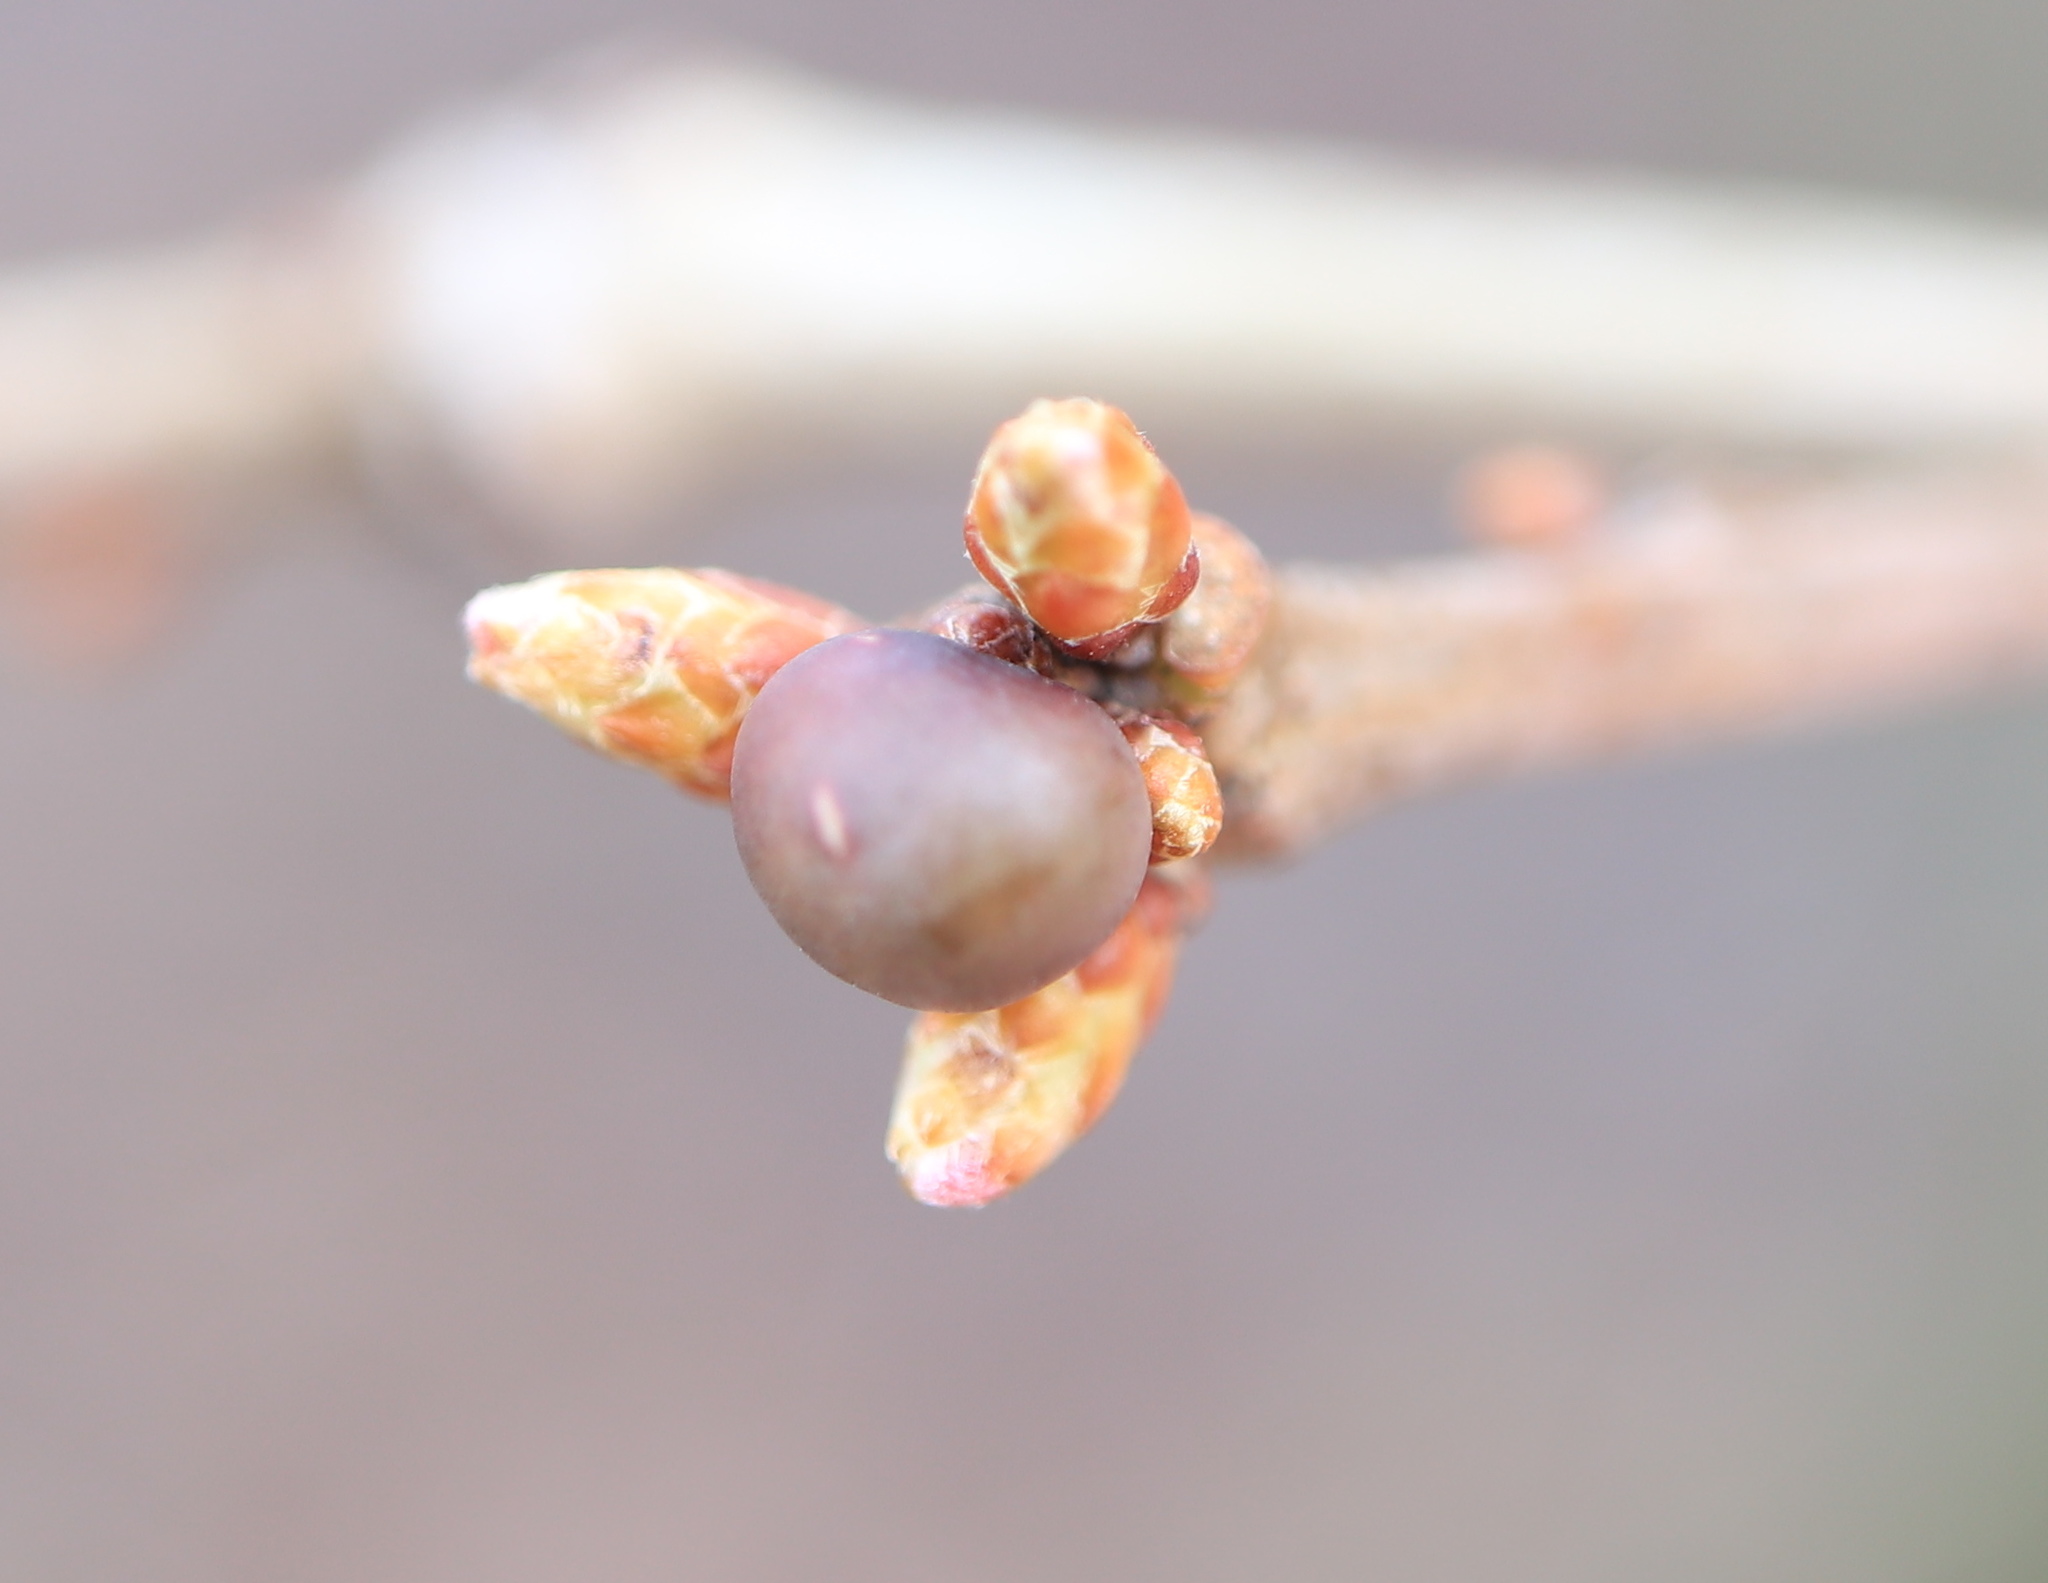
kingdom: Animalia
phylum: Arthropoda
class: Insecta
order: Hymenoptera
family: Cynipidae
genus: Neuroterus
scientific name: Neuroterus
